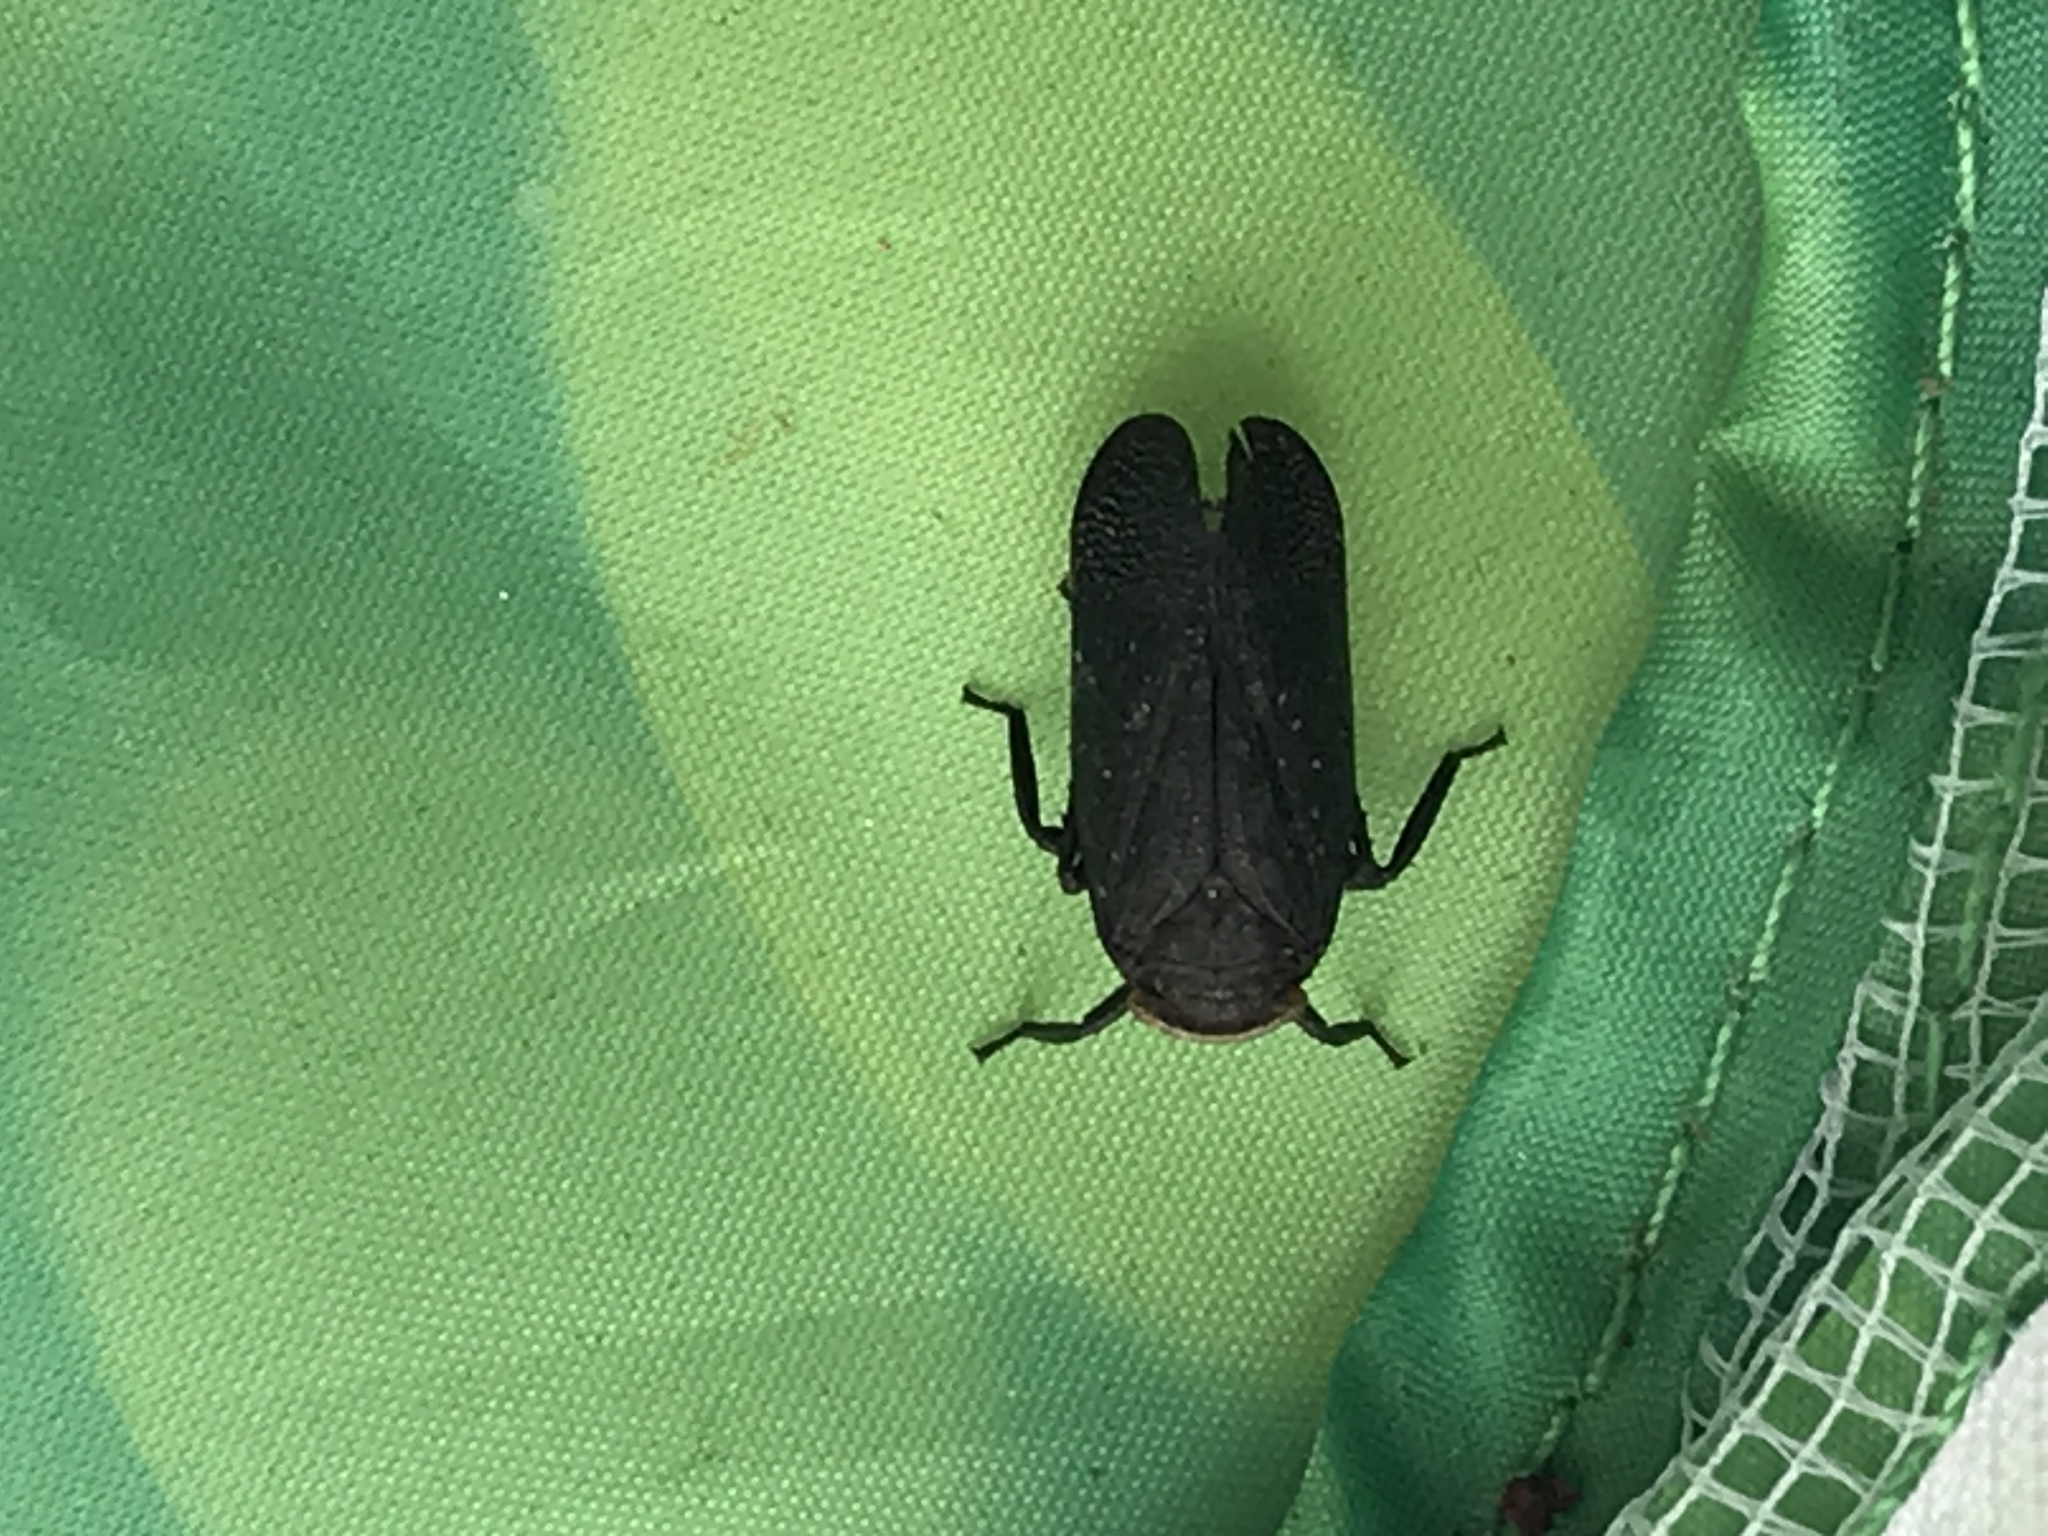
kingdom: Animalia
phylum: Arthropoda
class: Insecta
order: Hemiptera
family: Fulgoridae
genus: Crepusia
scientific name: Crepusia fuliginosa
